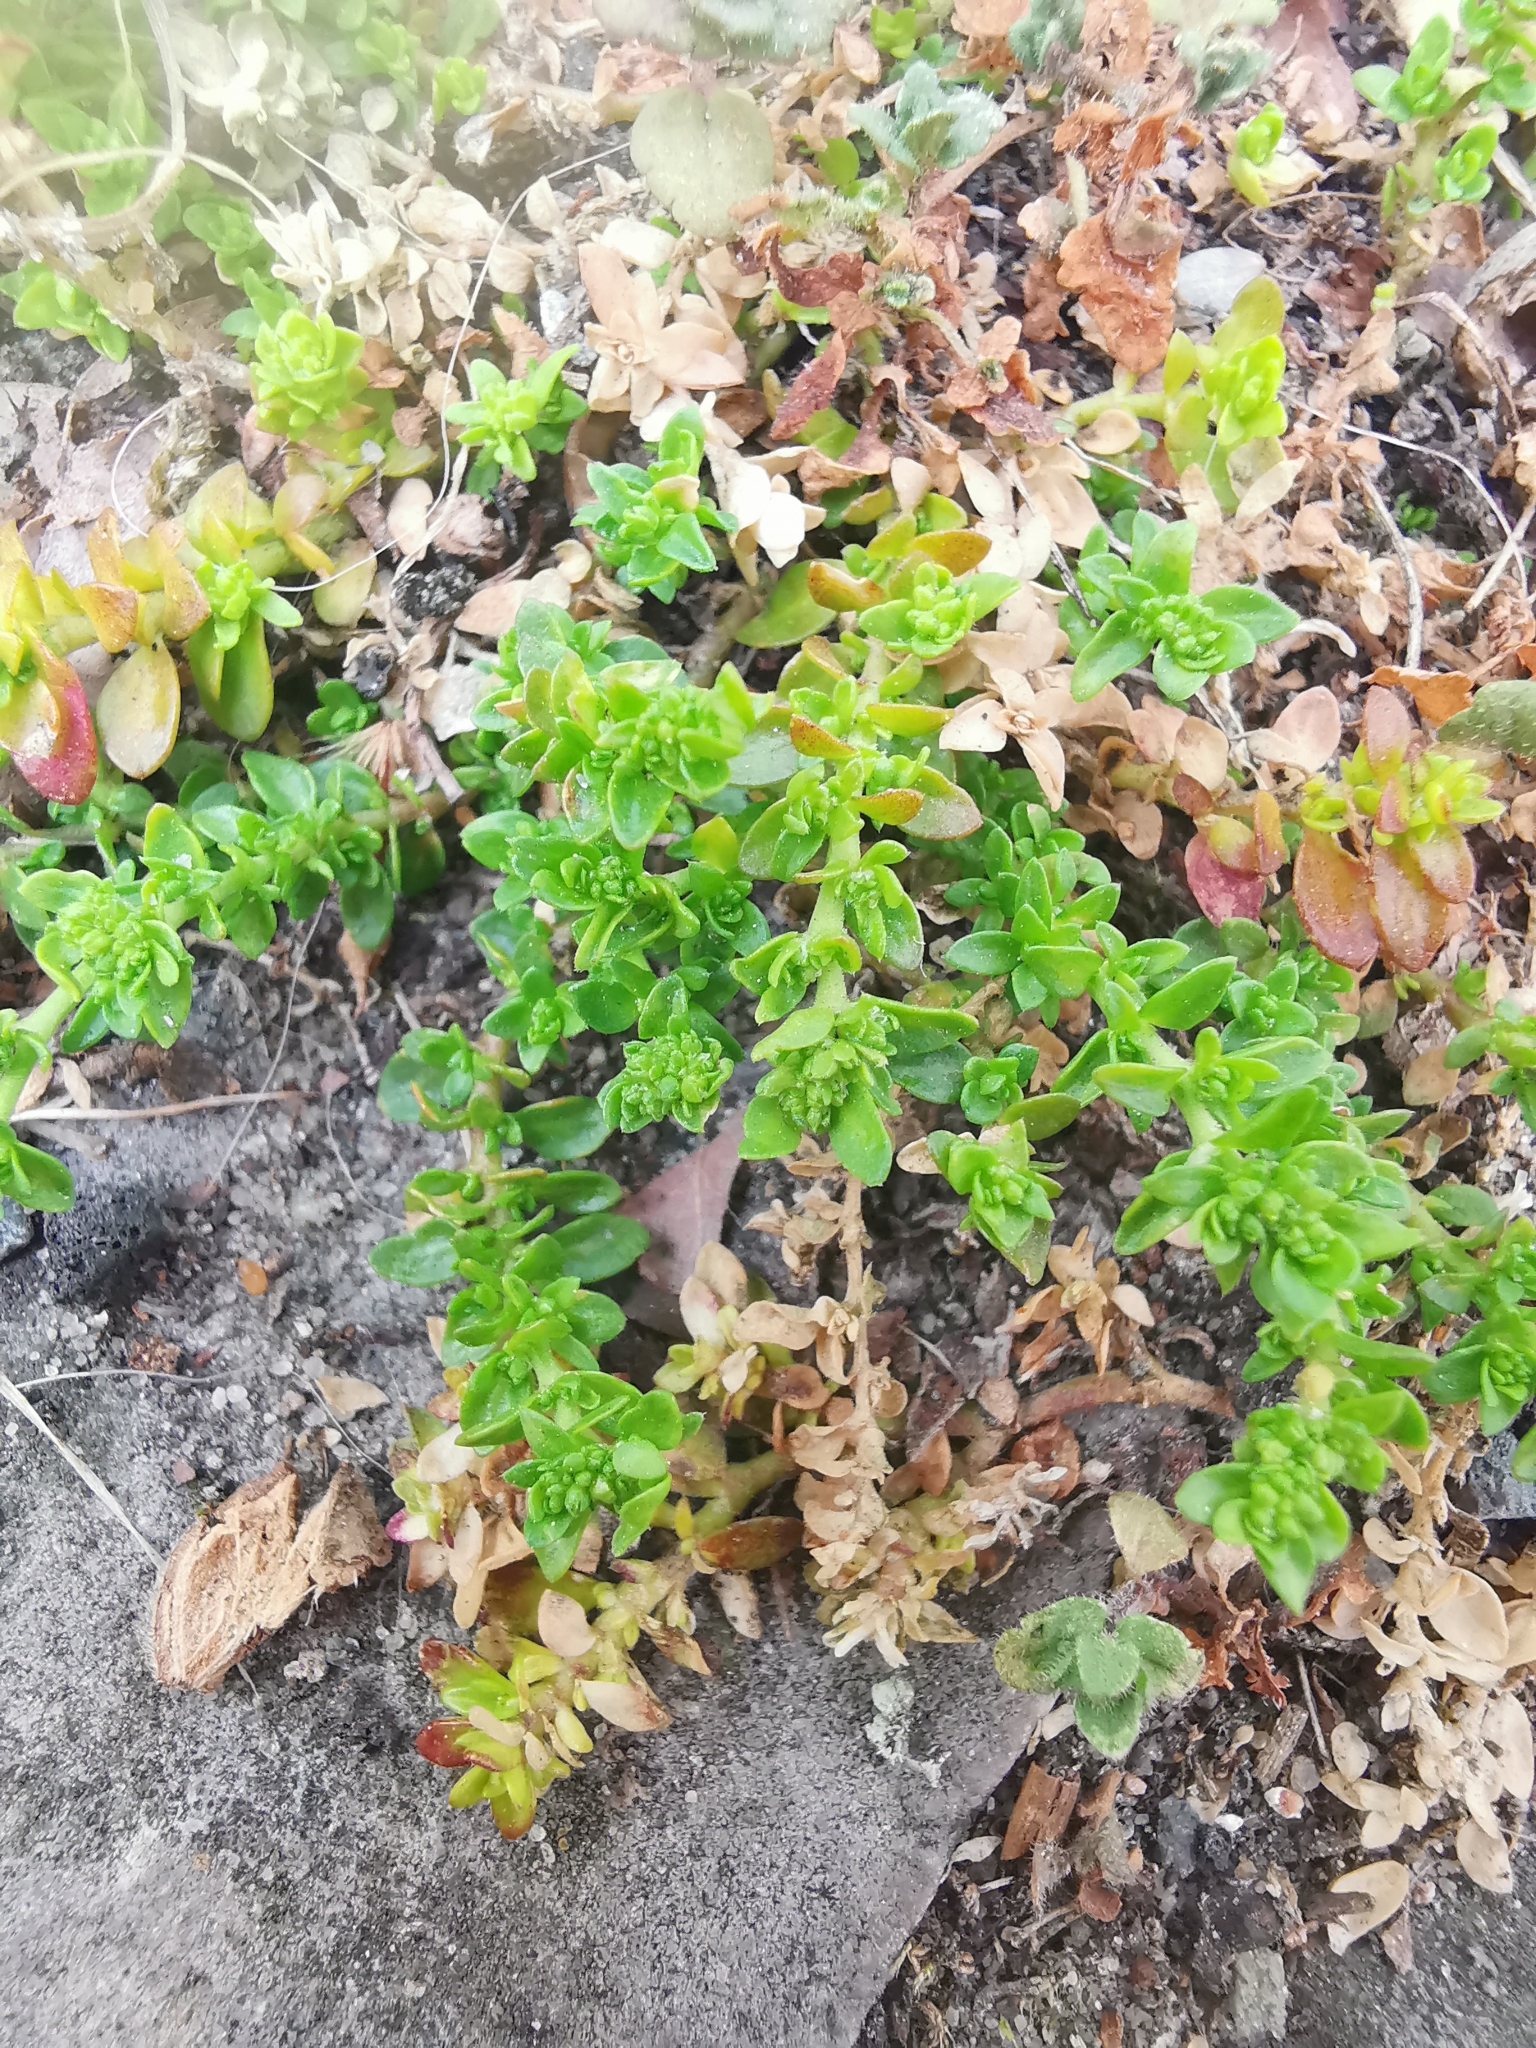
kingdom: Plantae
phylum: Tracheophyta
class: Magnoliopsida
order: Caryophyllales
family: Caryophyllaceae
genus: Herniaria
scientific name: Herniaria glabra
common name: Smooth rupturewort
